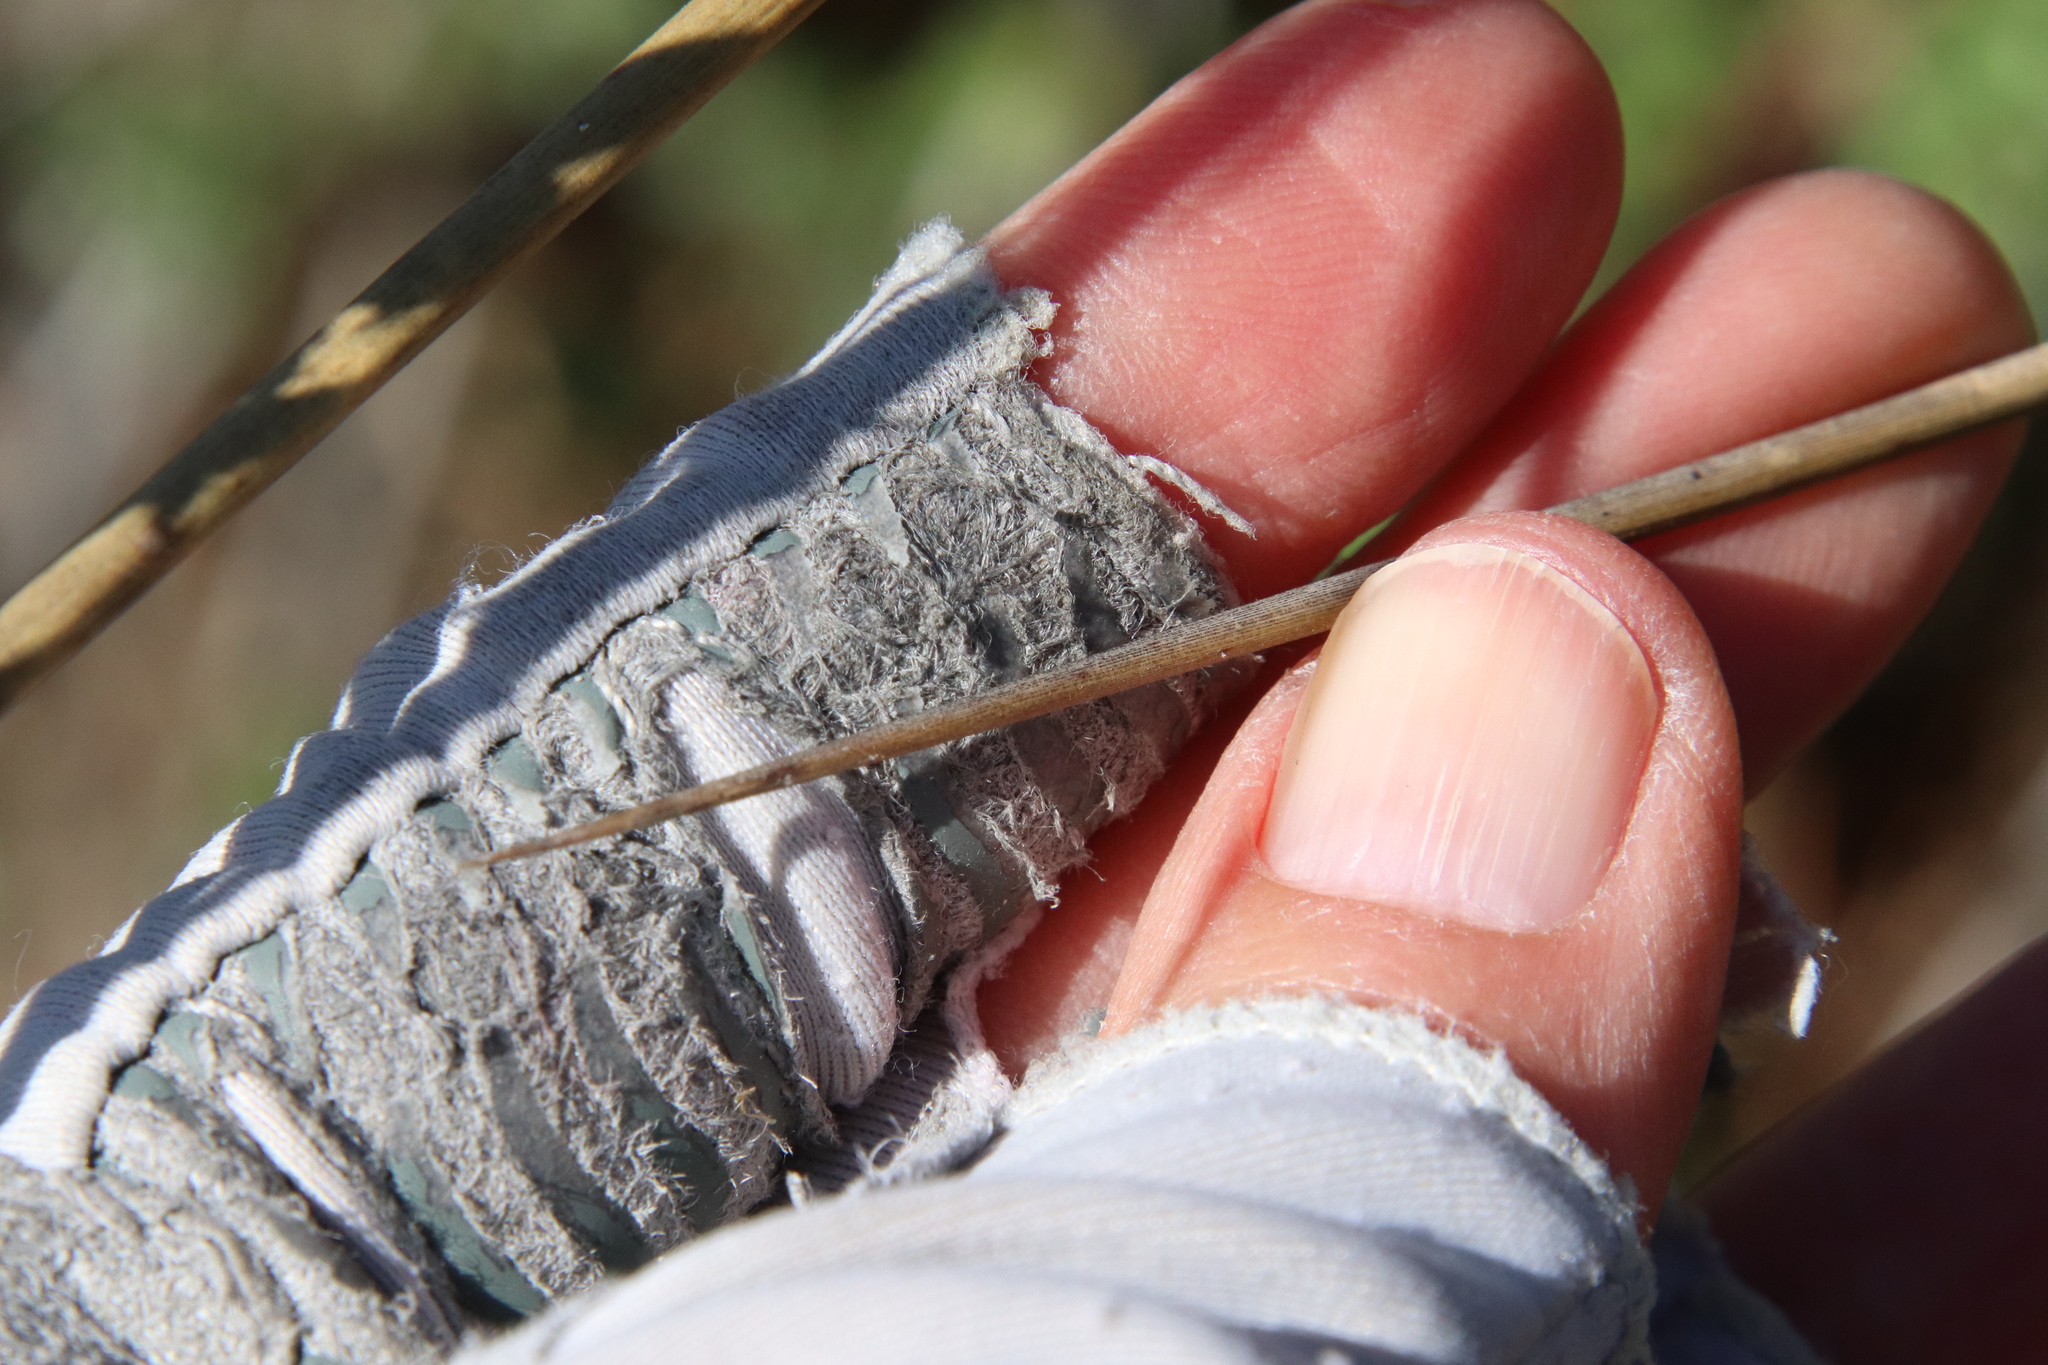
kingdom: Plantae
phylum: Tracheophyta
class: Liliopsida
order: Poales
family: Juncaceae
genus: Juncus
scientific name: Juncus acutus
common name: Sharp rush
